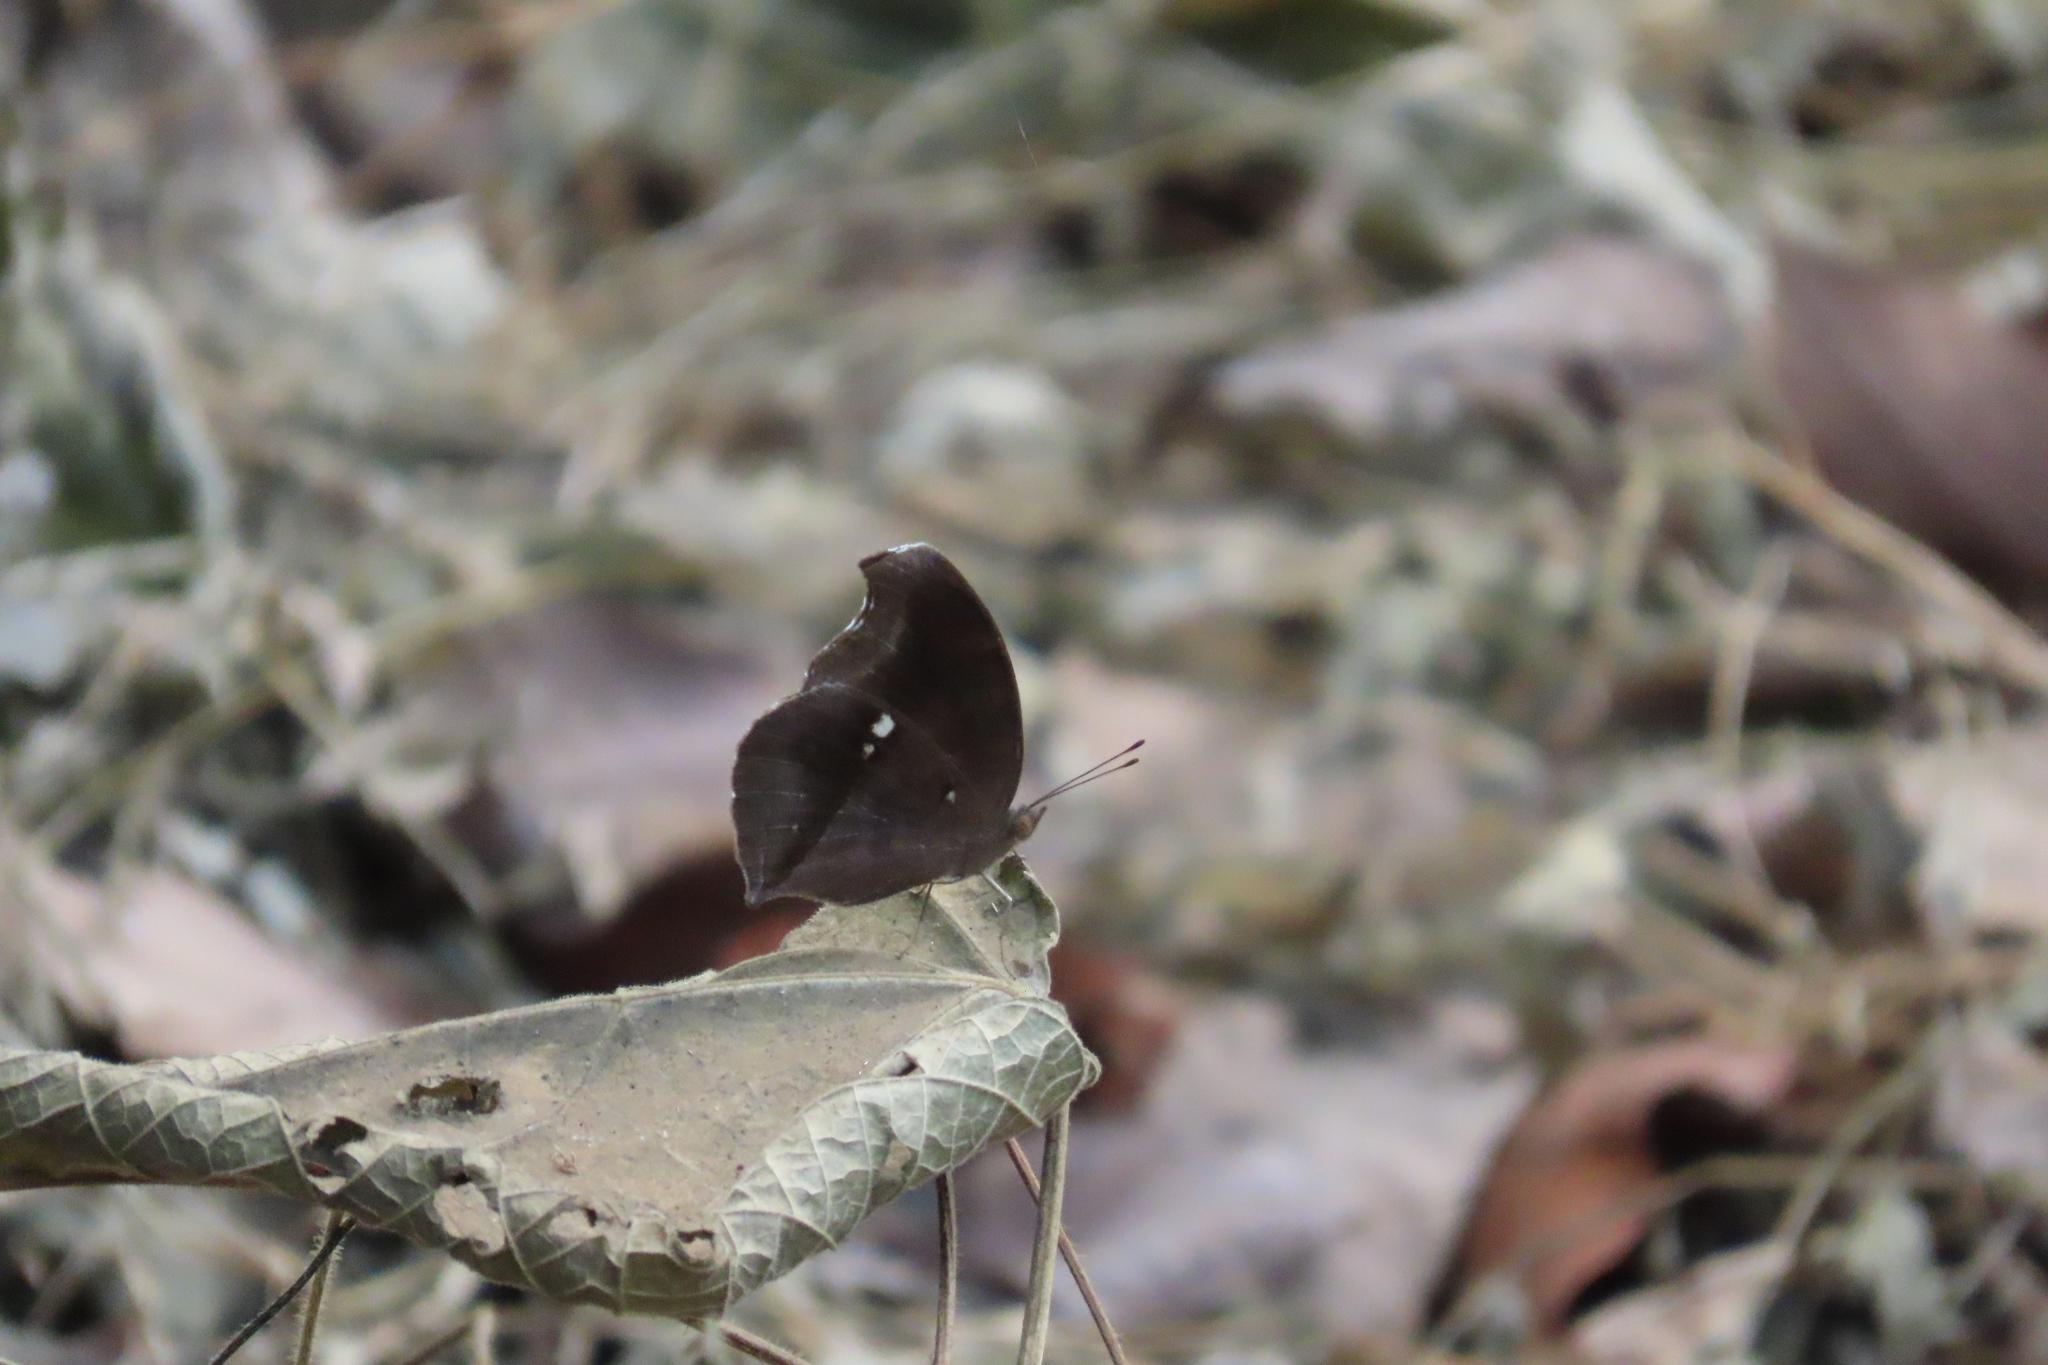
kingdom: Animalia
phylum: Arthropoda
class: Insecta
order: Lepidoptera
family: Nymphalidae
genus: Junonia
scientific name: Junonia iphita
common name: Chocolate pansy
